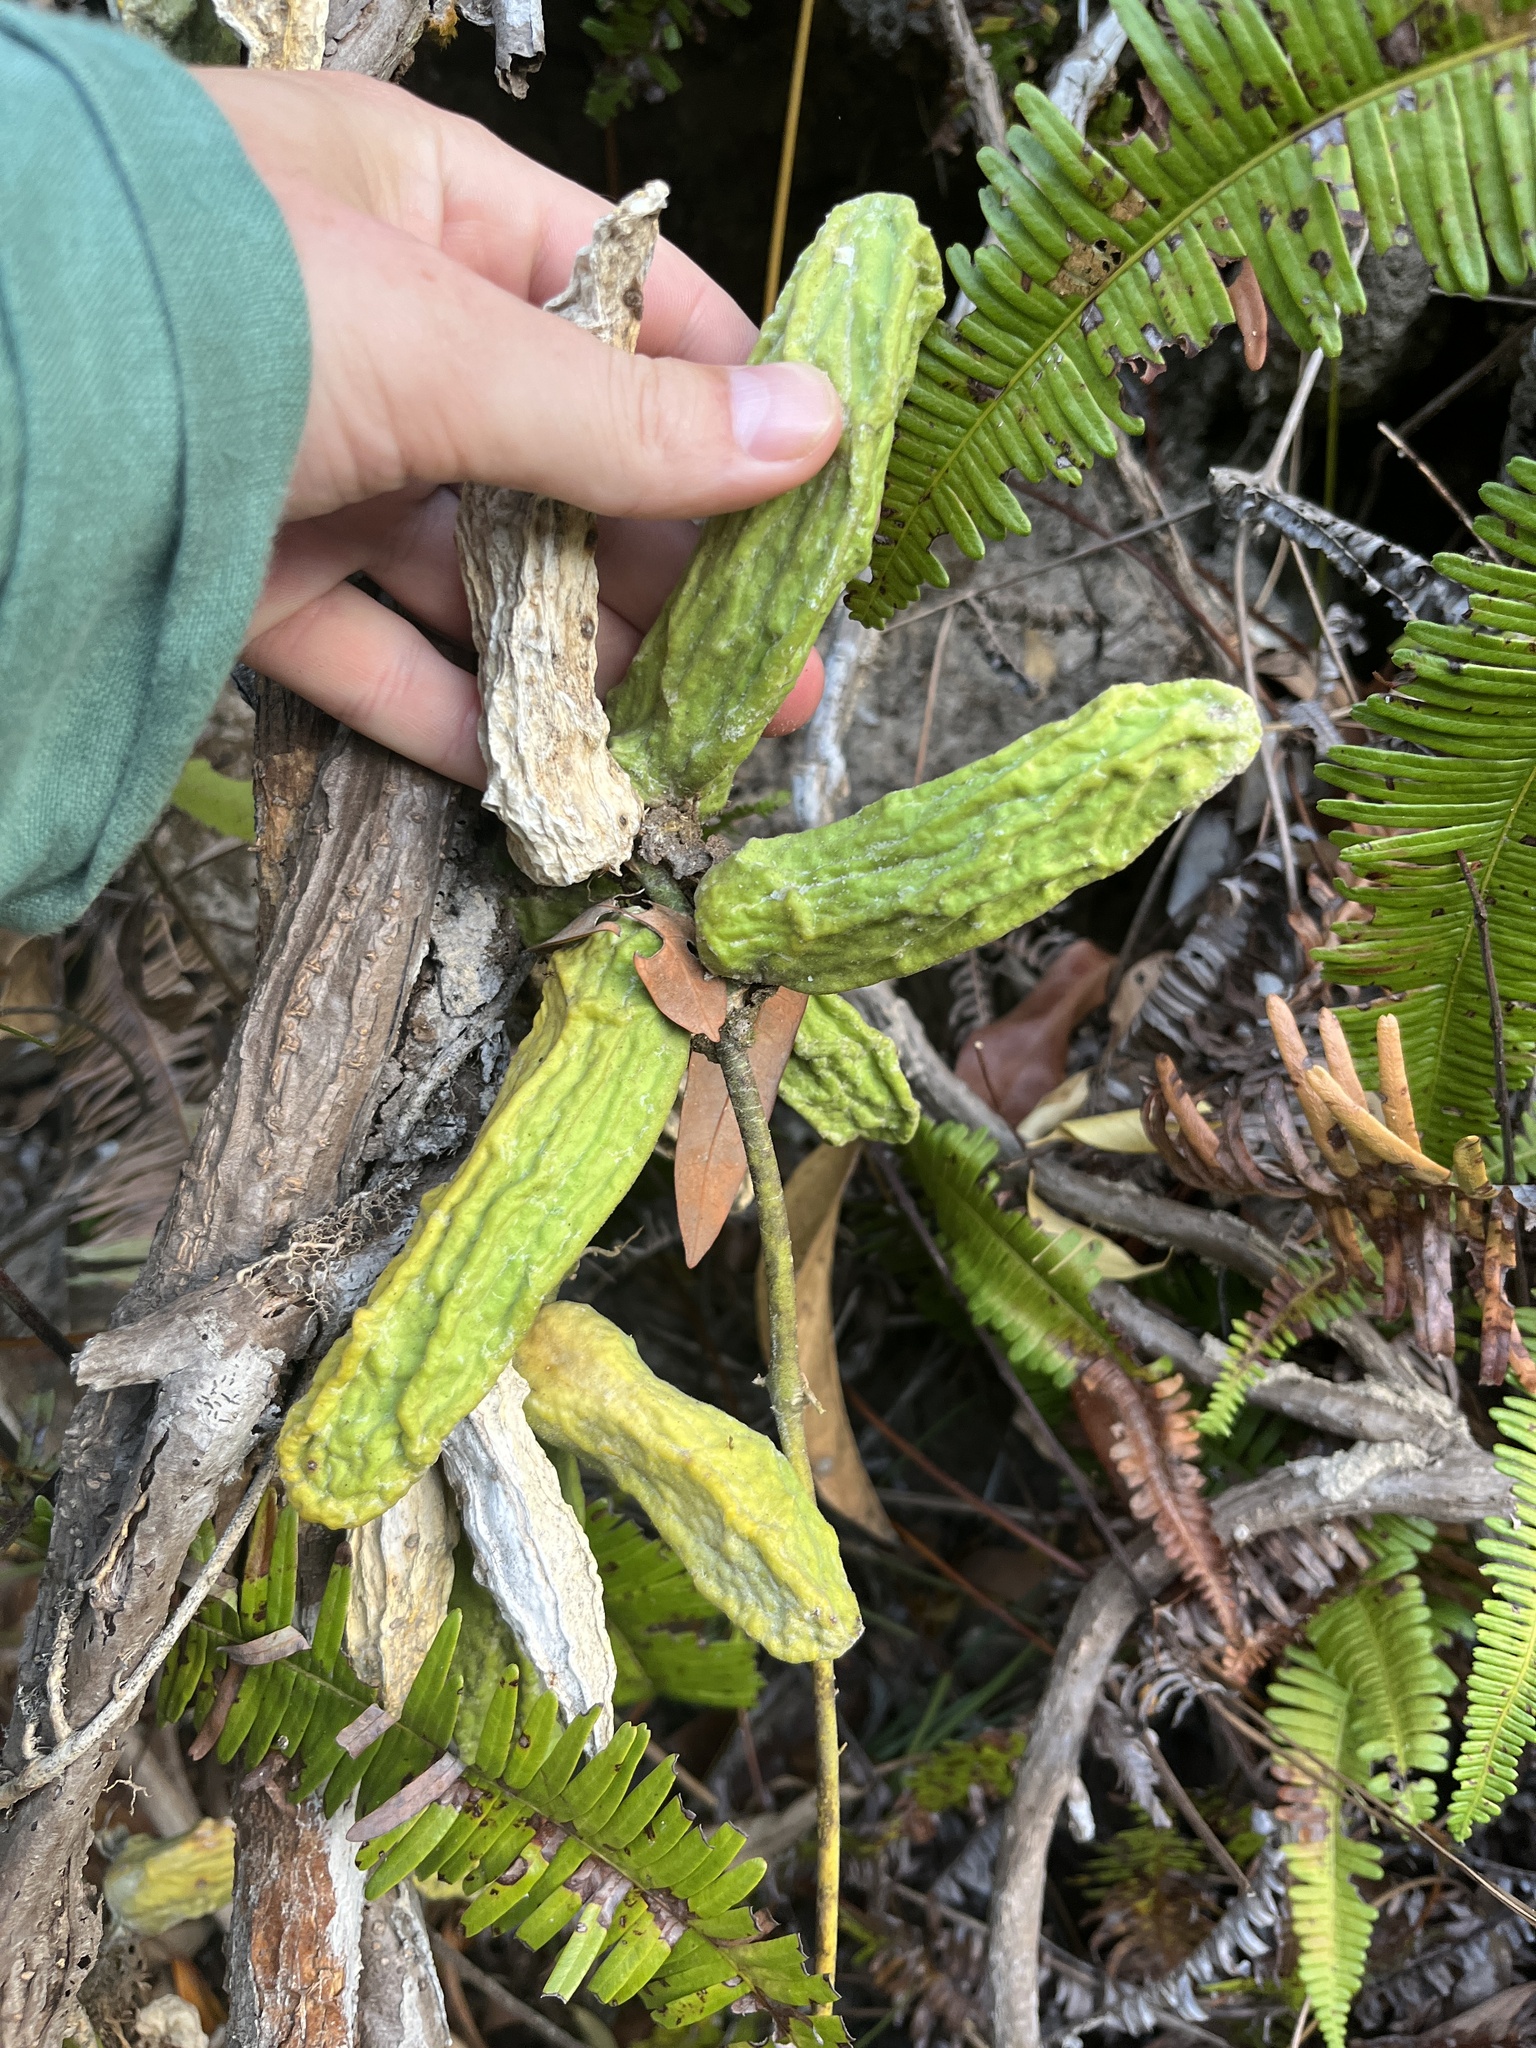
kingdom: Plantae
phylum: Tracheophyta
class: Magnoliopsida
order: Gentianales
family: Apocynaceae
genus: Dischidia
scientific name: Dischidia major
